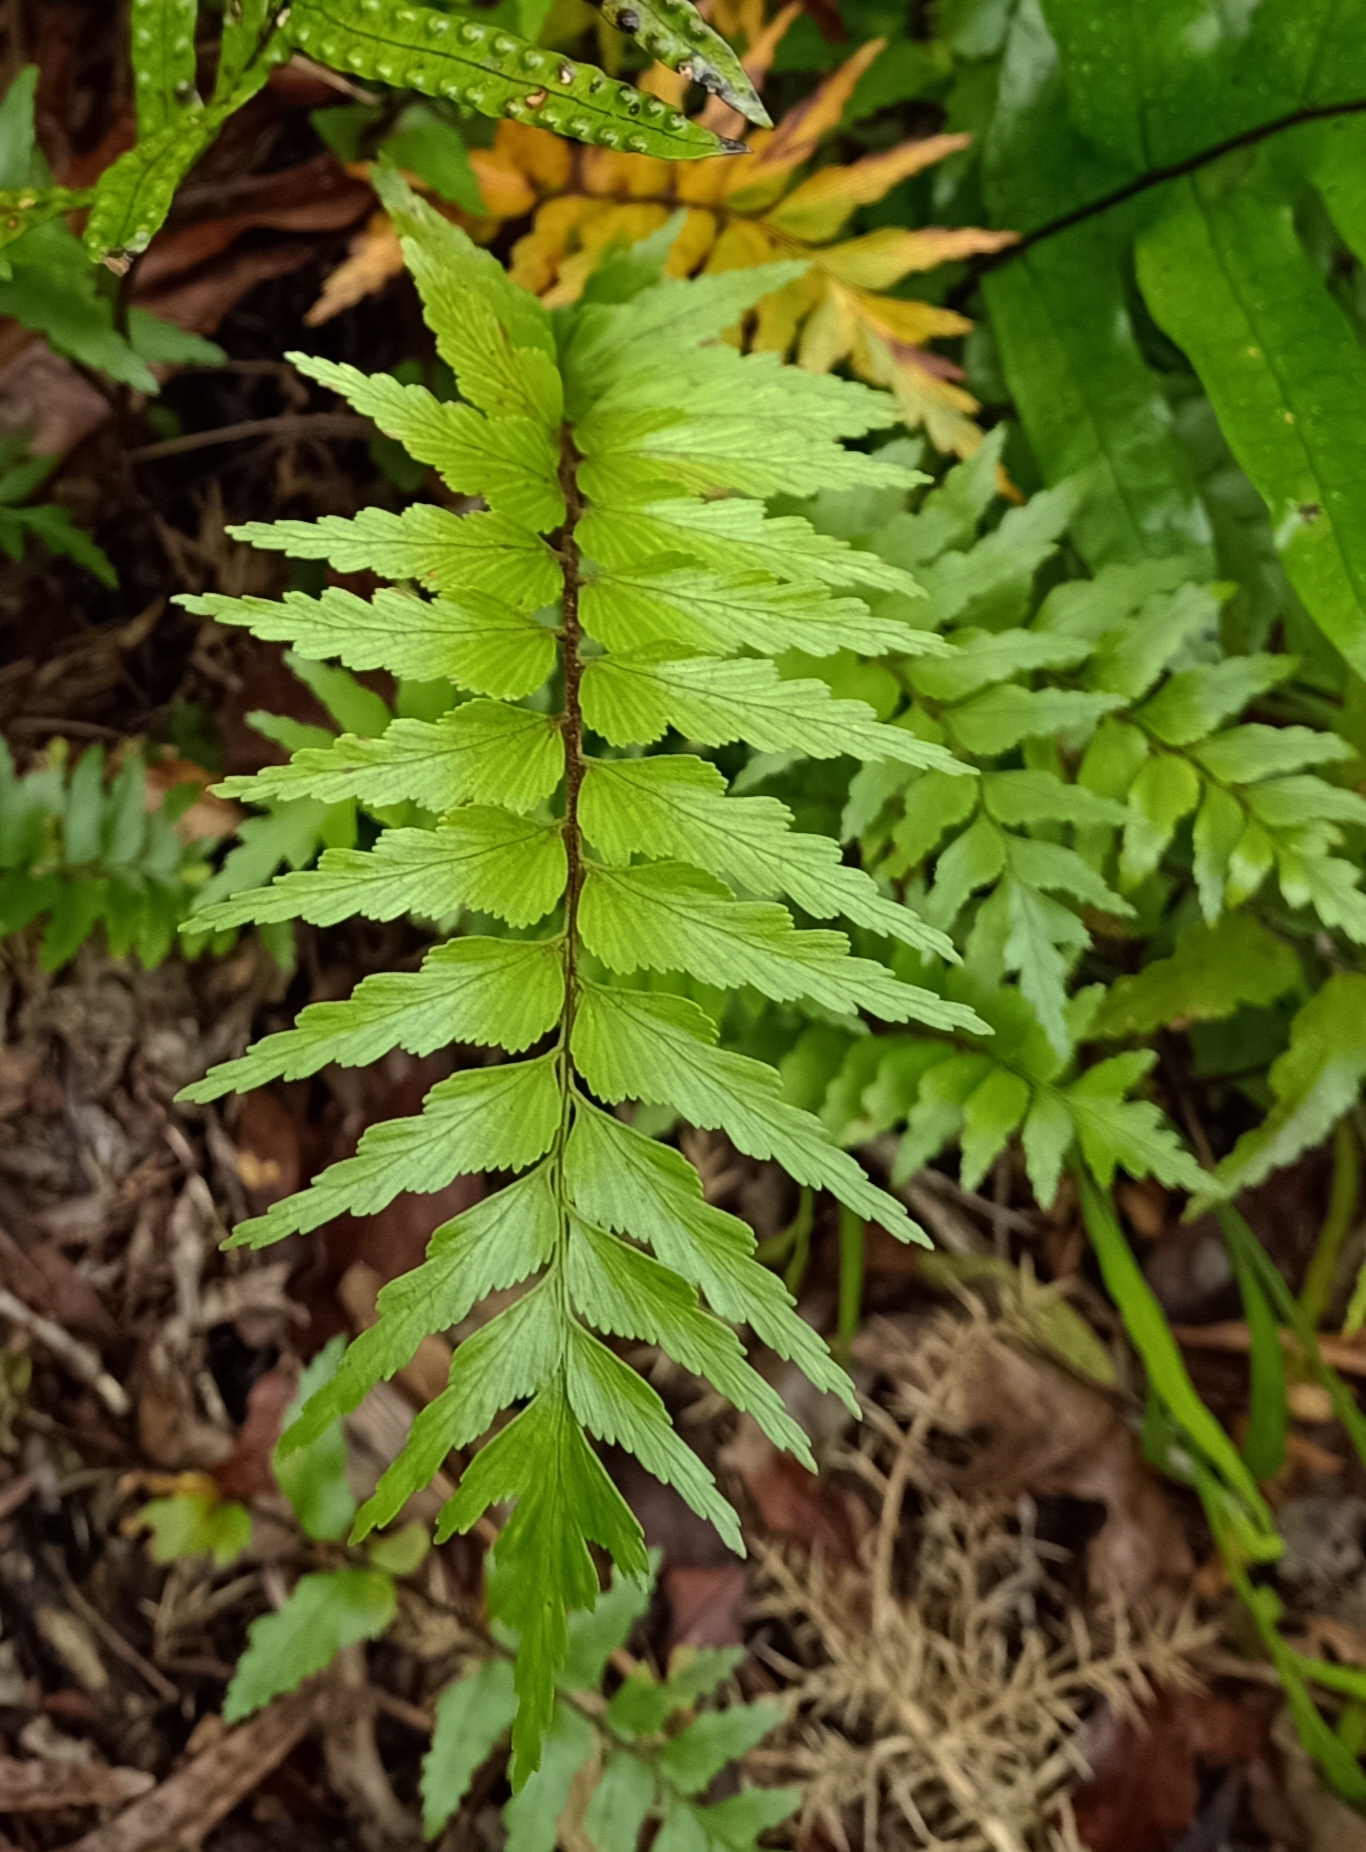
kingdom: Plantae
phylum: Tracheophyta
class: Polypodiopsida
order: Polypodiales
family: Aspleniaceae
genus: Asplenium
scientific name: Asplenium polyodon
